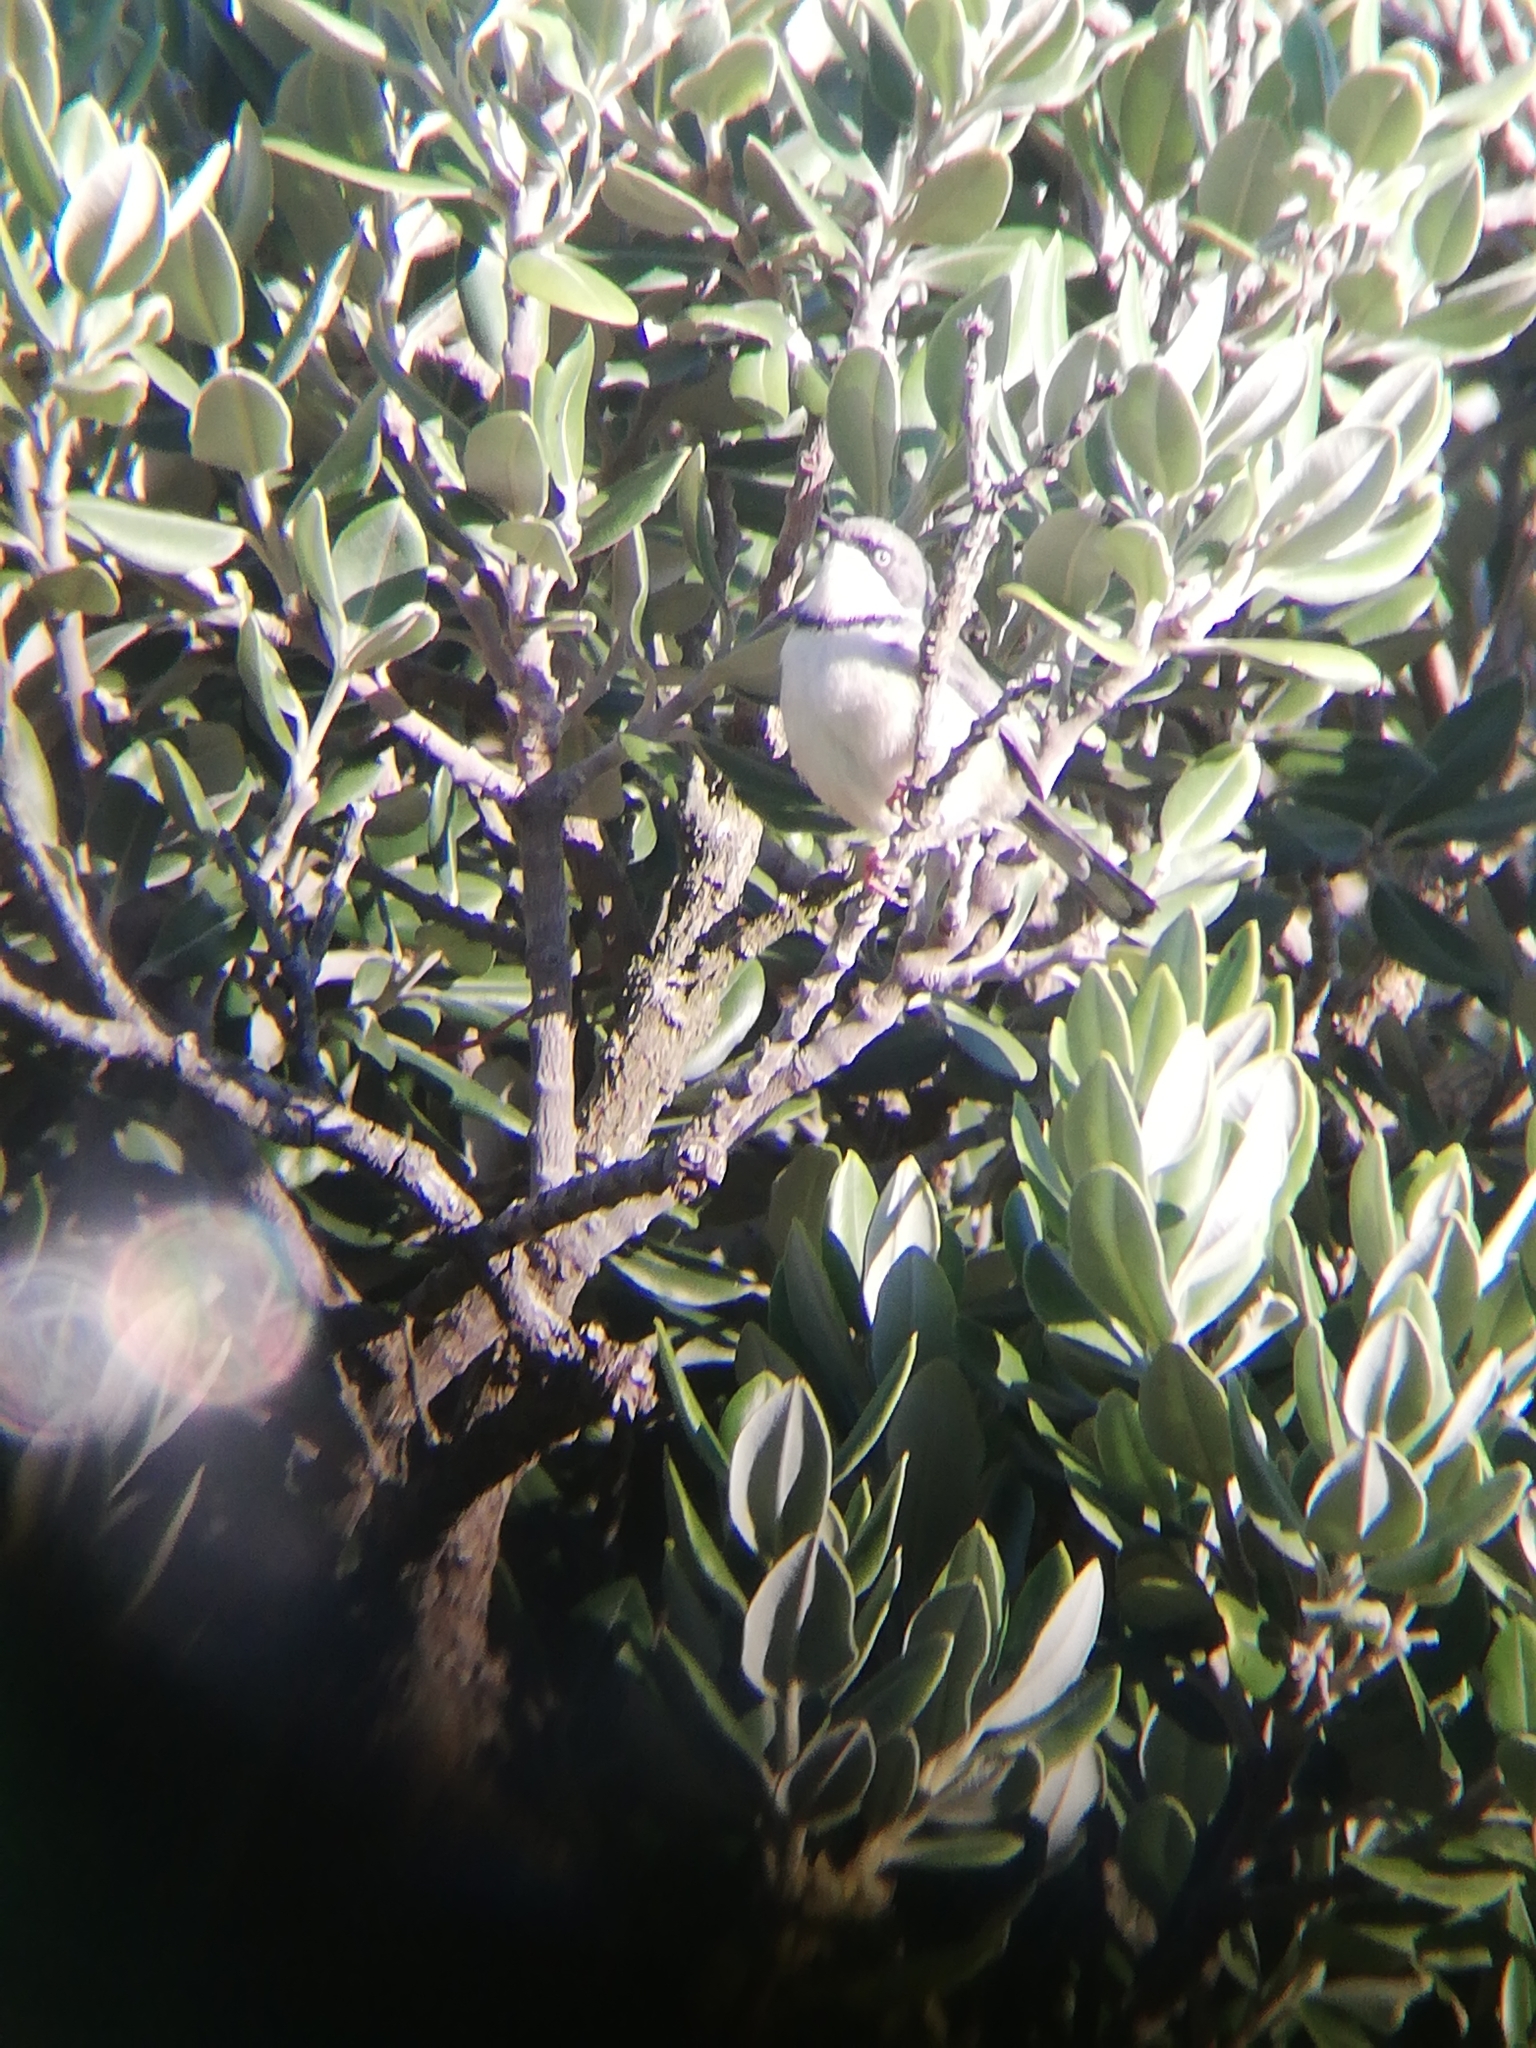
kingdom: Animalia
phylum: Chordata
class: Aves
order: Passeriformes
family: Cisticolidae
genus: Apalis
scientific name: Apalis thoracica
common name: Bar-throated apalis
